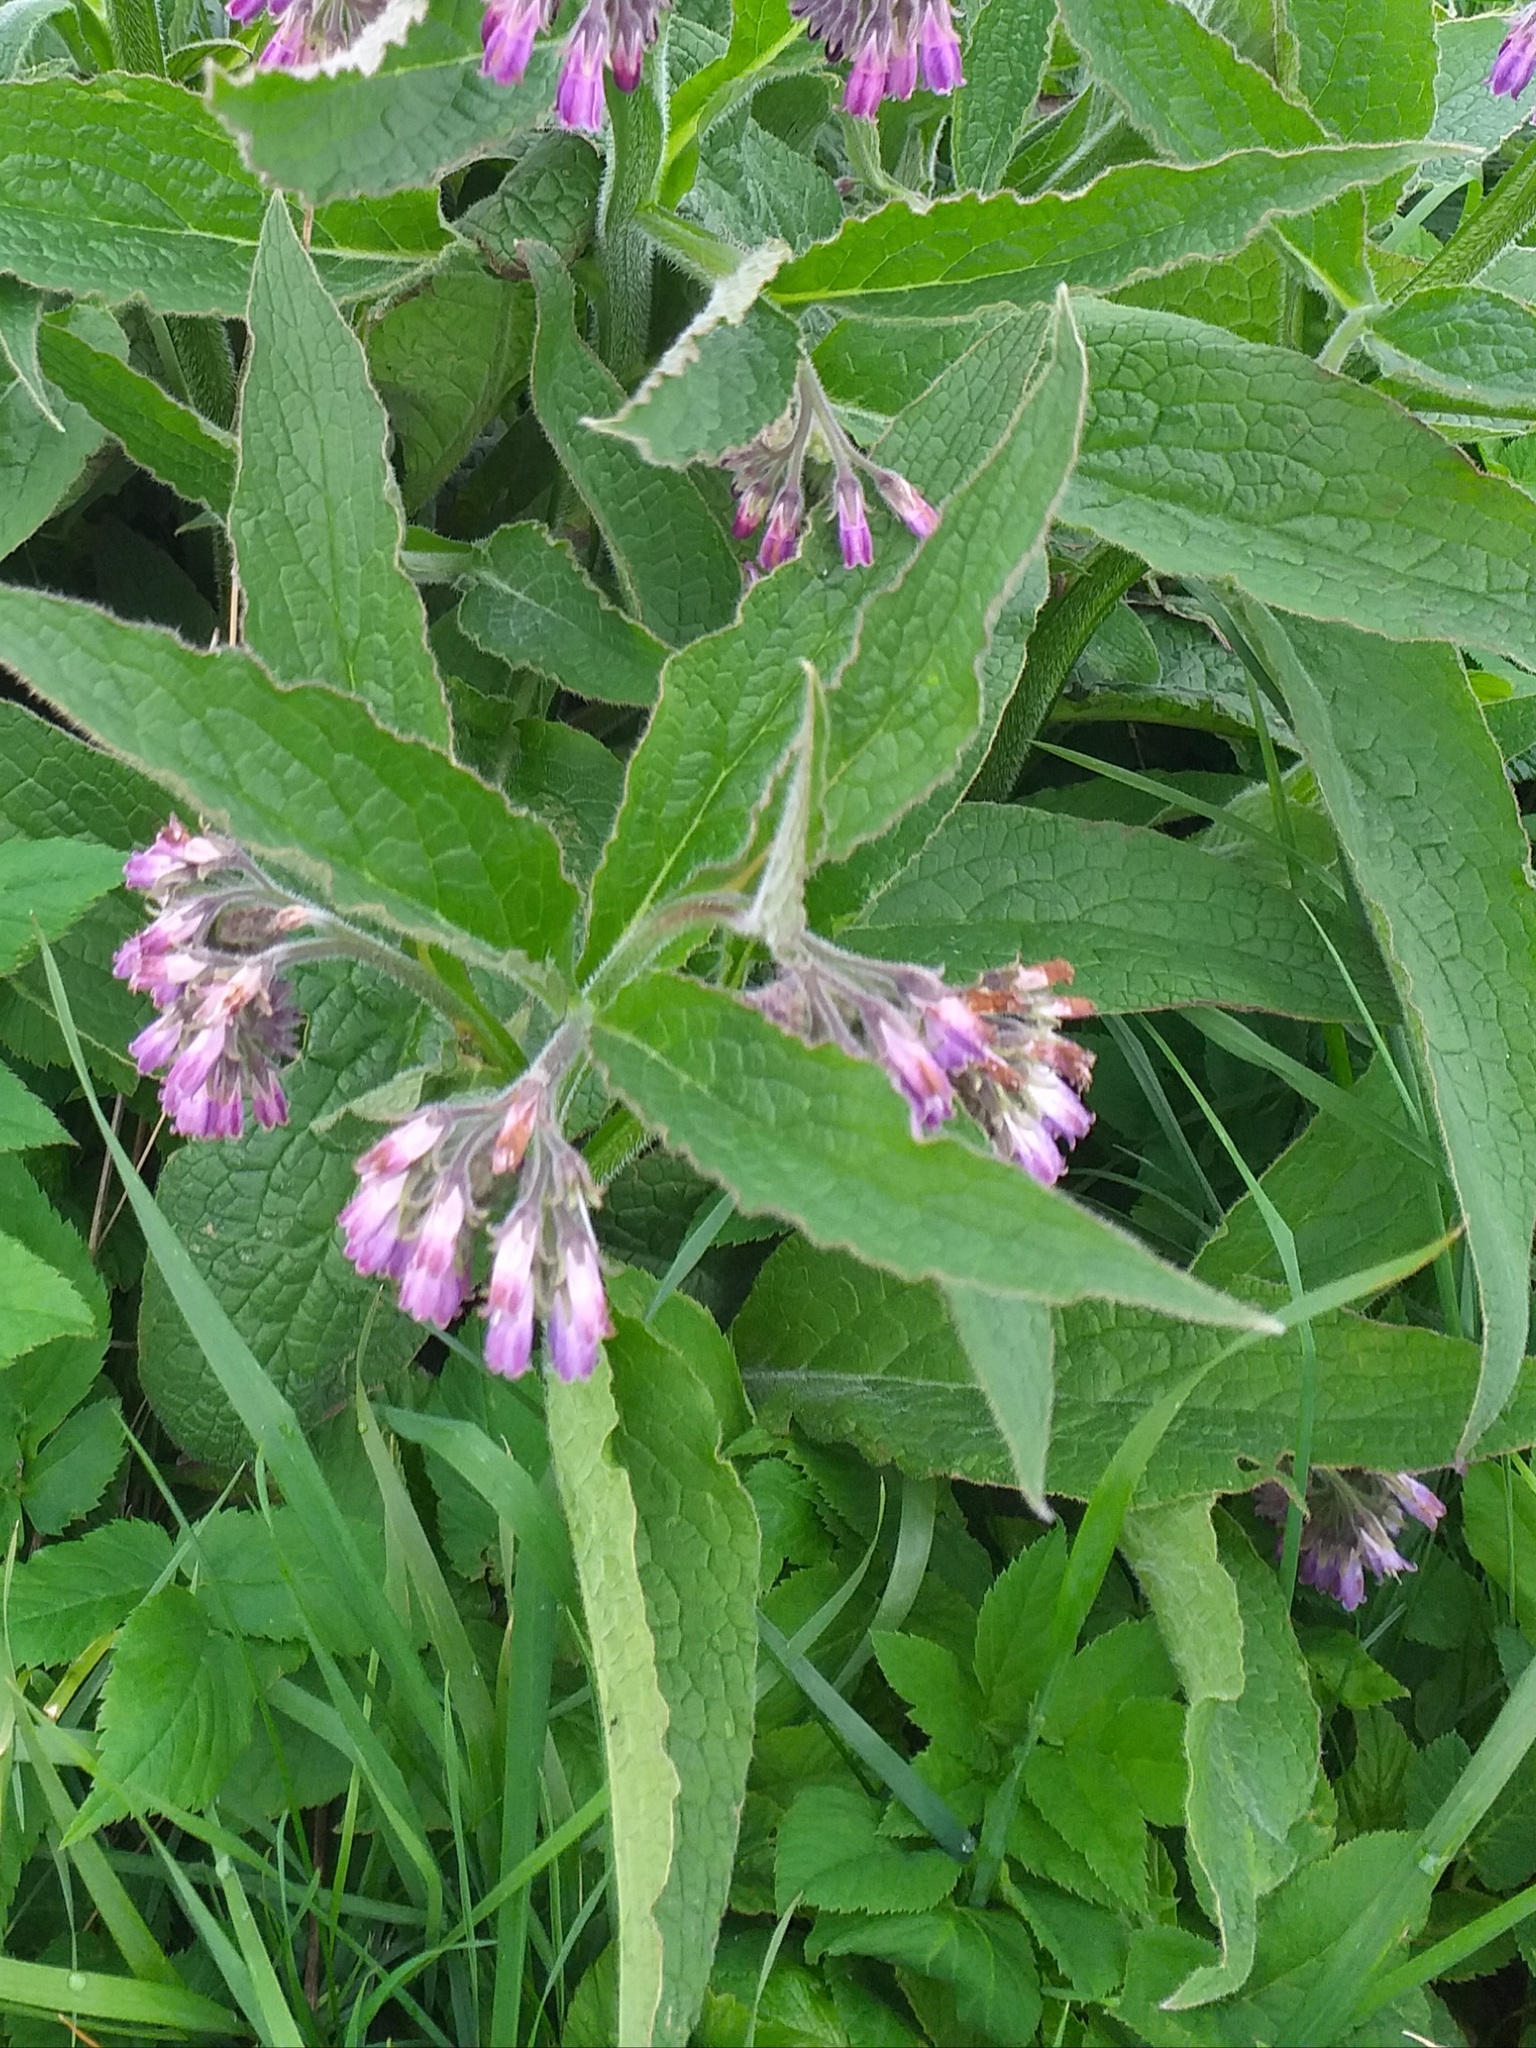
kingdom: Plantae
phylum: Tracheophyta
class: Magnoliopsida
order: Boraginales
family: Boraginaceae
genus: Symphytum
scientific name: Symphytum officinale
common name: Common comfrey
